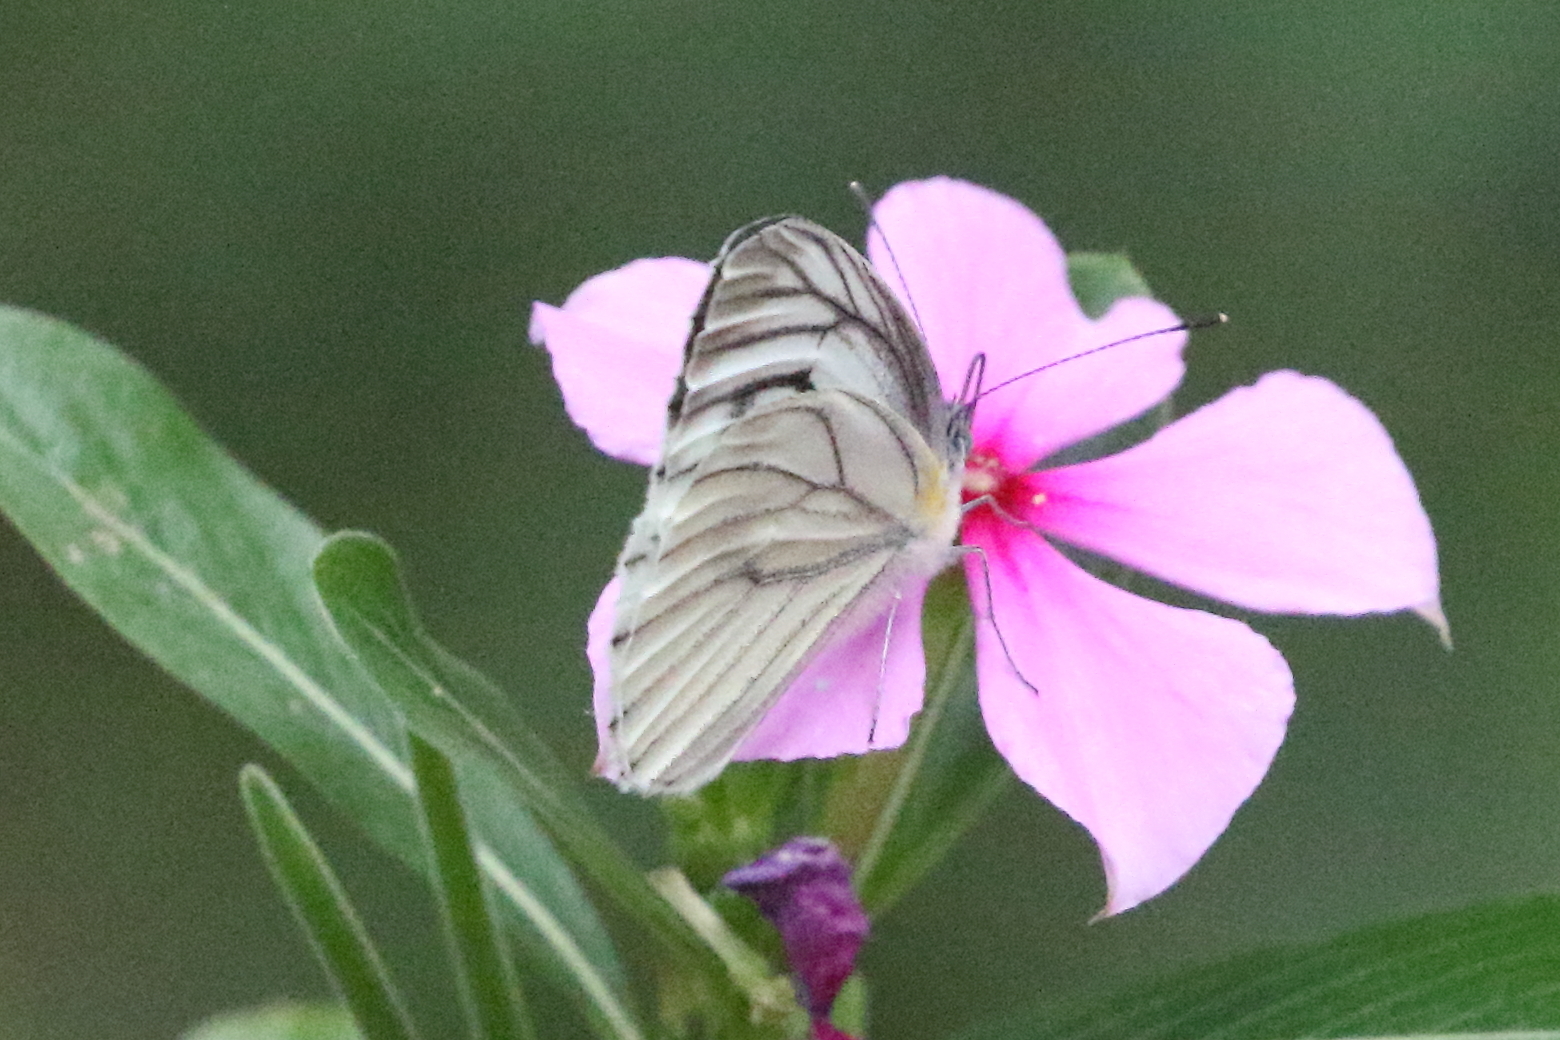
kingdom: Animalia
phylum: Arthropoda
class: Insecta
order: Lepidoptera
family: Pieridae
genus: Pieris
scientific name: Pieris latouchei
